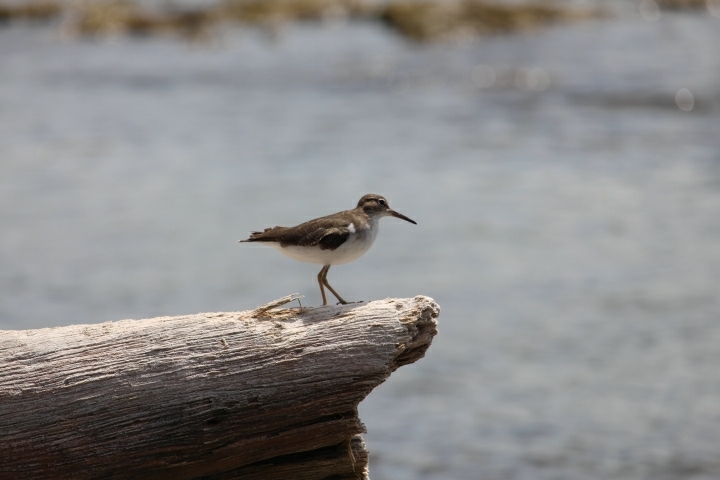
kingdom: Animalia
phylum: Chordata
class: Aves
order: Charadriiformes
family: Scolopacidae
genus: Actitis
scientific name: Actitis macularius
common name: Spotted sandpiper
